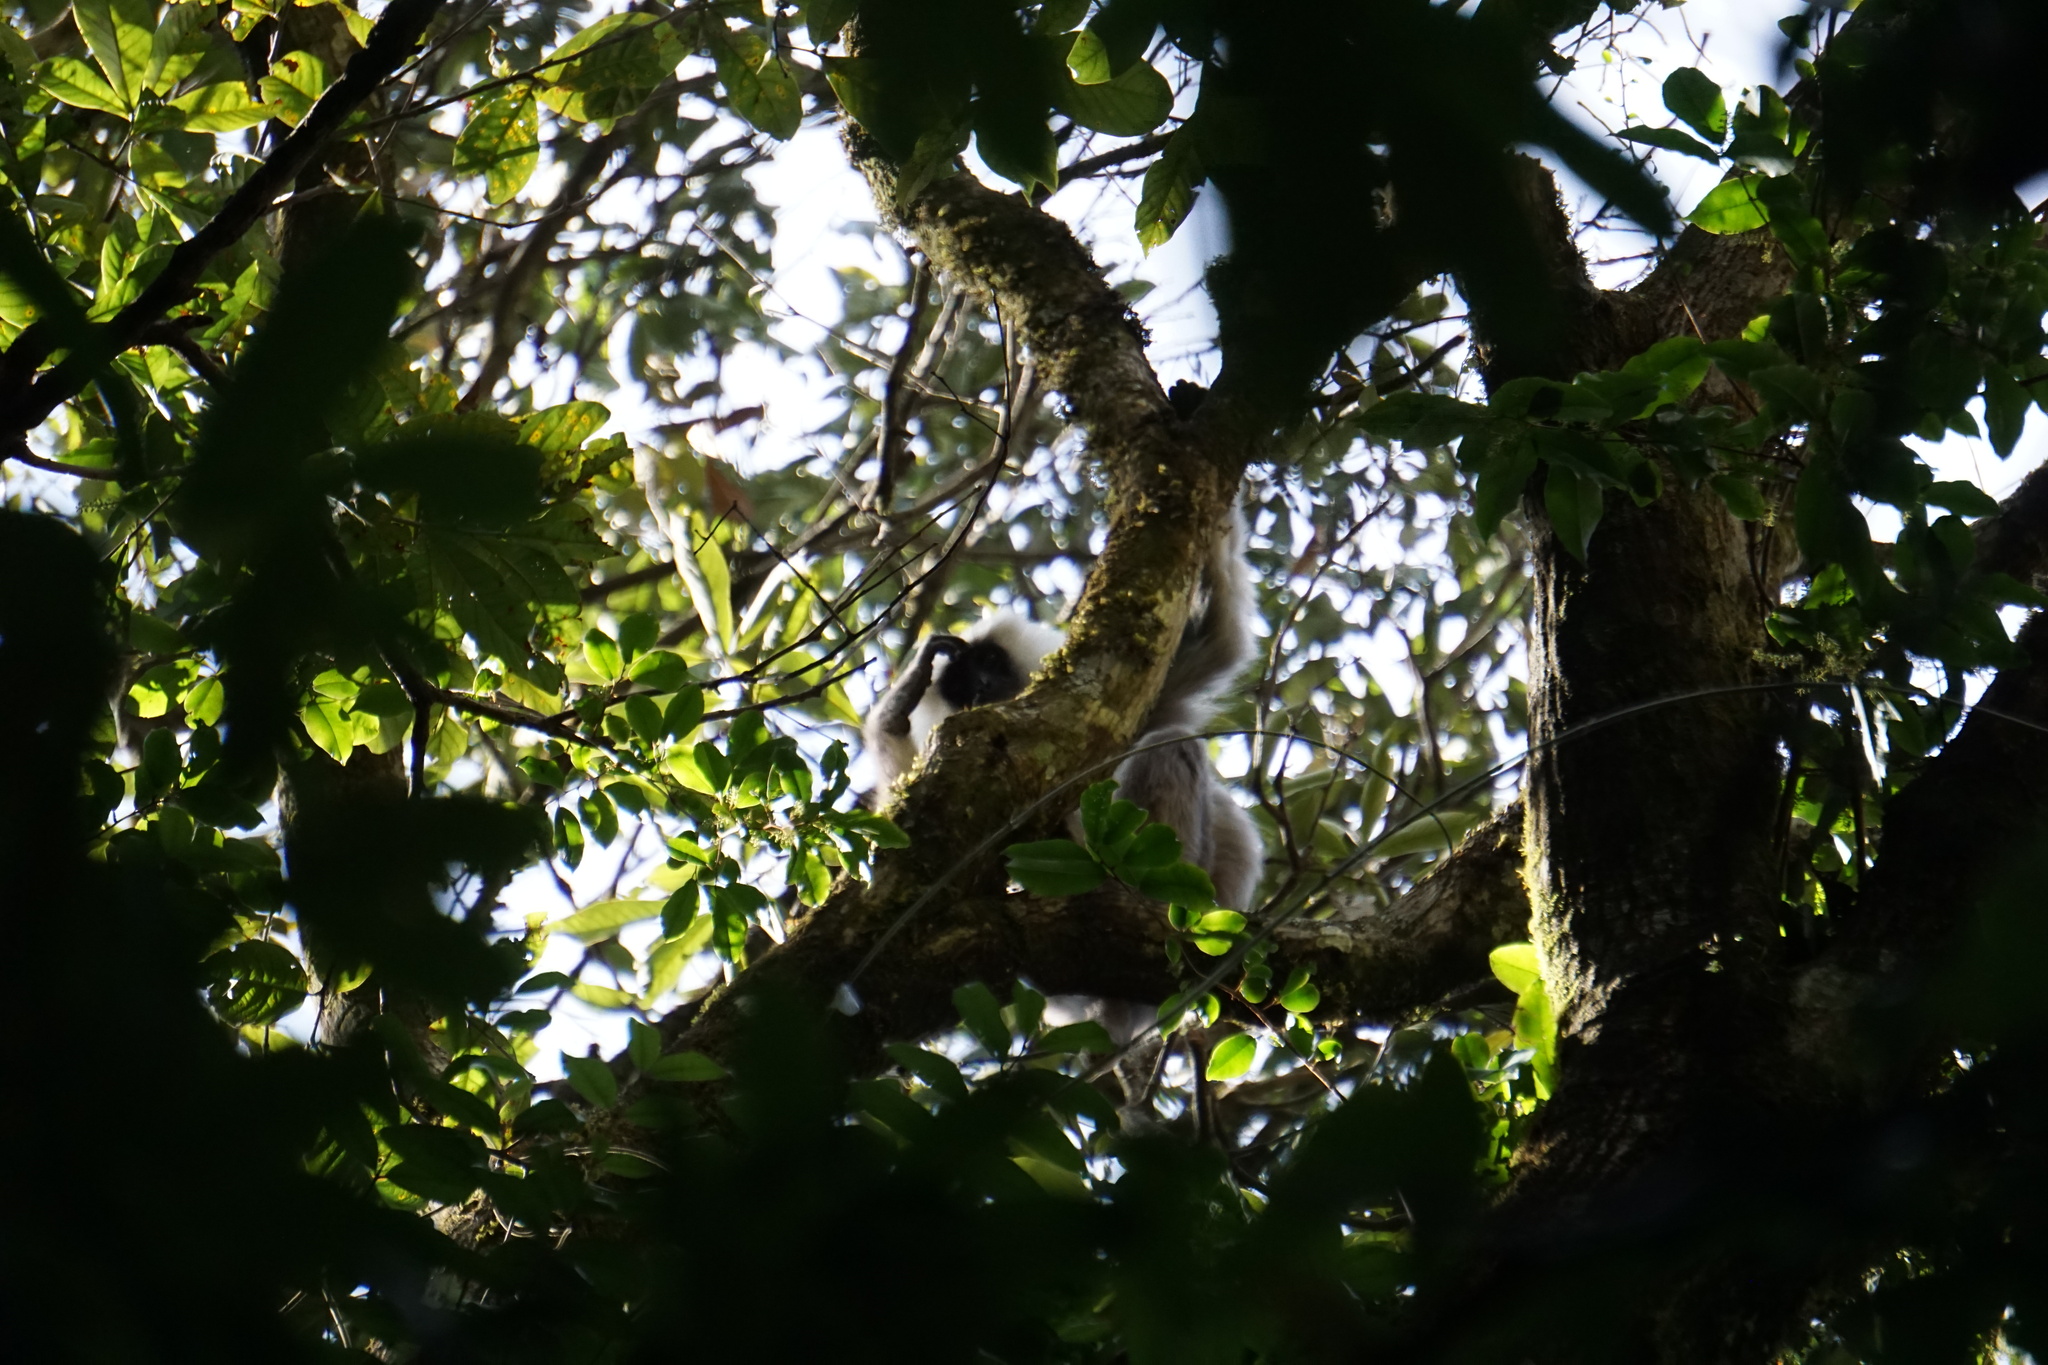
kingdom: Animalia
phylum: Chordata
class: Mammalia
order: Primates
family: Cercopithecidae
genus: Semnopithecus
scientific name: Semnopithecus schistaceus
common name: Nepal gray langur
